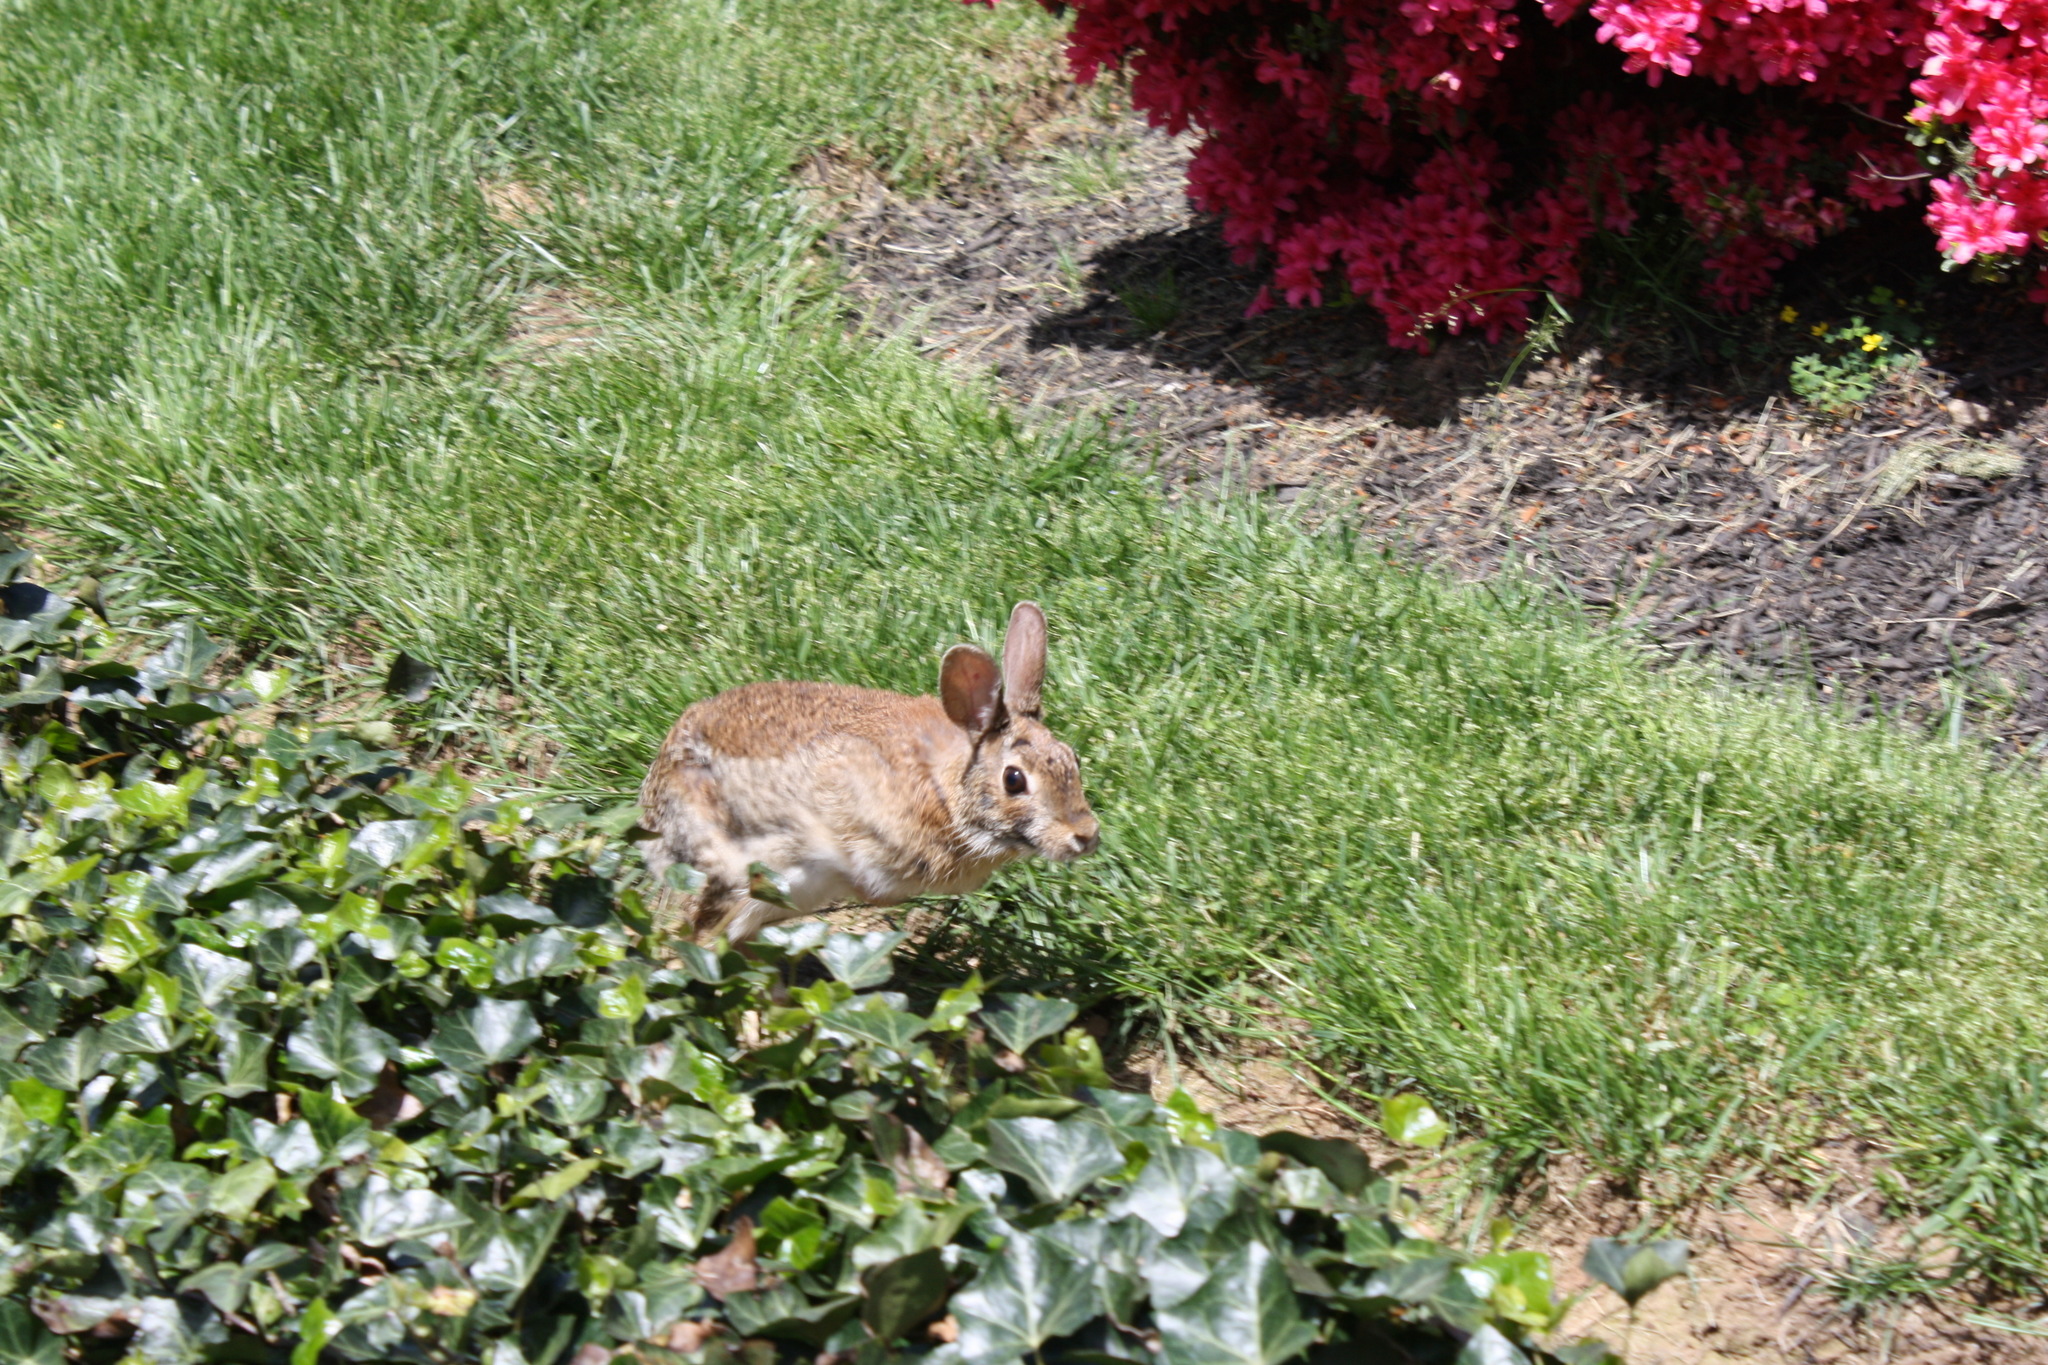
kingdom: Animalia
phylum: Chordata
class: Mammalia
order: Lagomorpha
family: Leporidae
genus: Sylvilagus
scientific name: Sylvilagus floridanus
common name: Eastern cottontail
